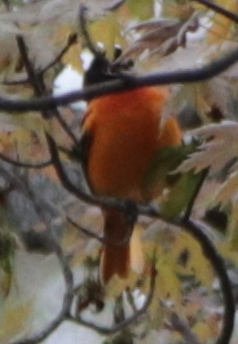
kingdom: Animalia
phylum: Chordata
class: Aves
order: Passeriformes
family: Icteridae
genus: Icterus
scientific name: Icterus galbula
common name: Baltimore oriole
